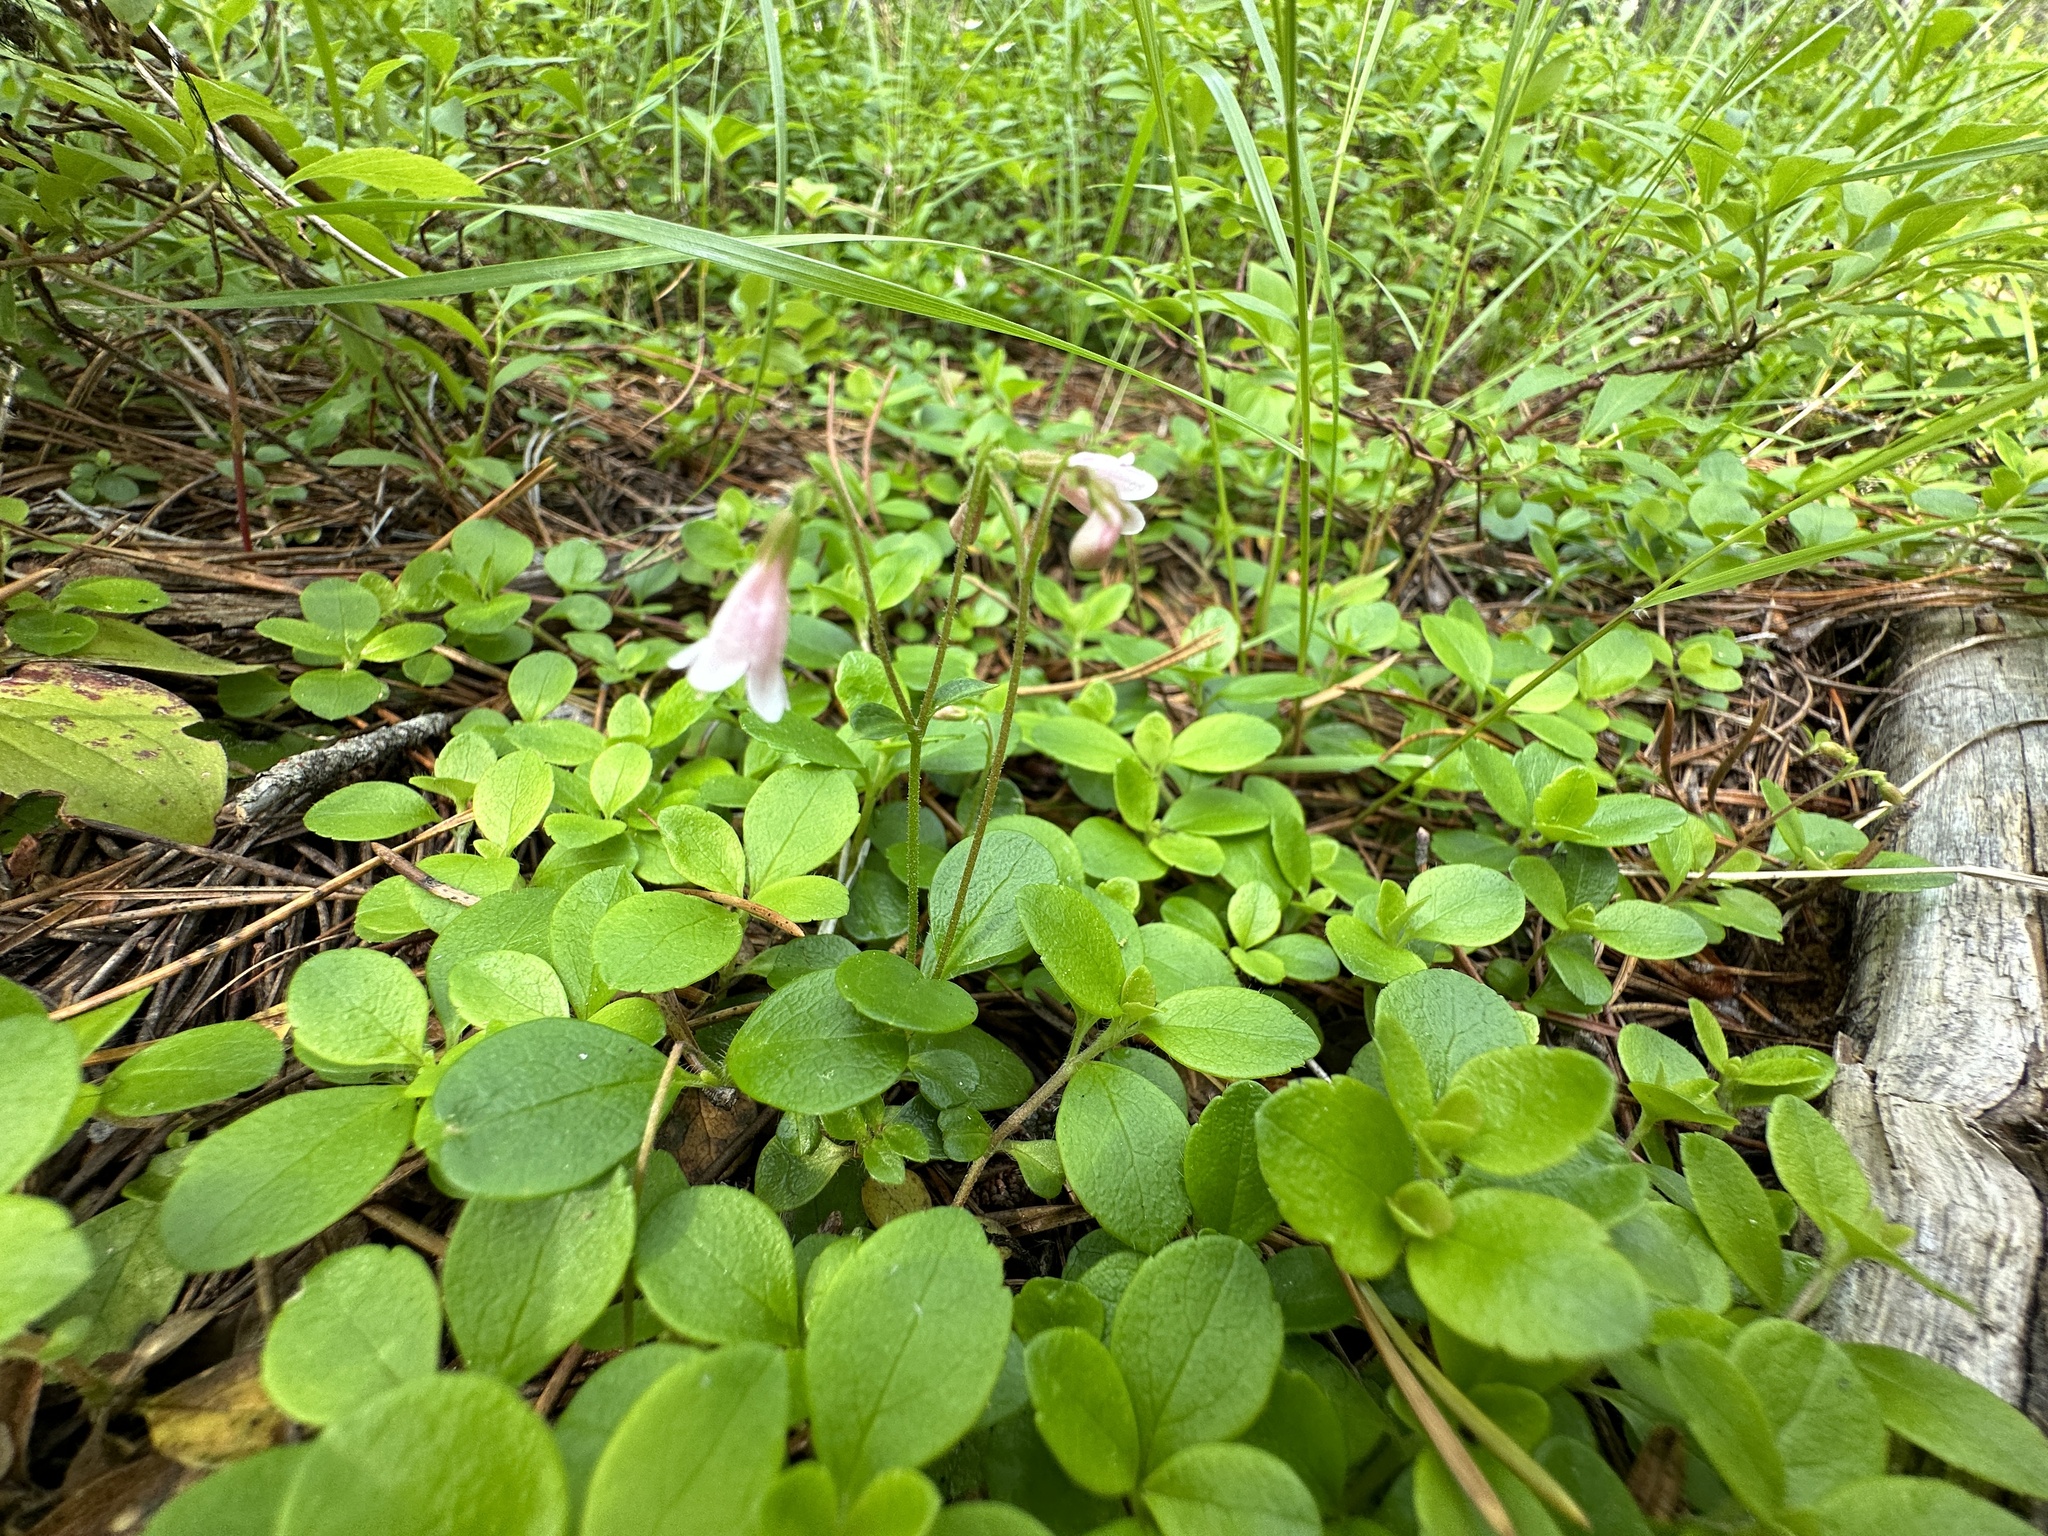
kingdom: Plantae
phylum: Tracheophyta
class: Magnoliopsida
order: Dipsacales
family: Caprifoliaceae
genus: Linnaea
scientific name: Linnaea borealis
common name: Twinflower
